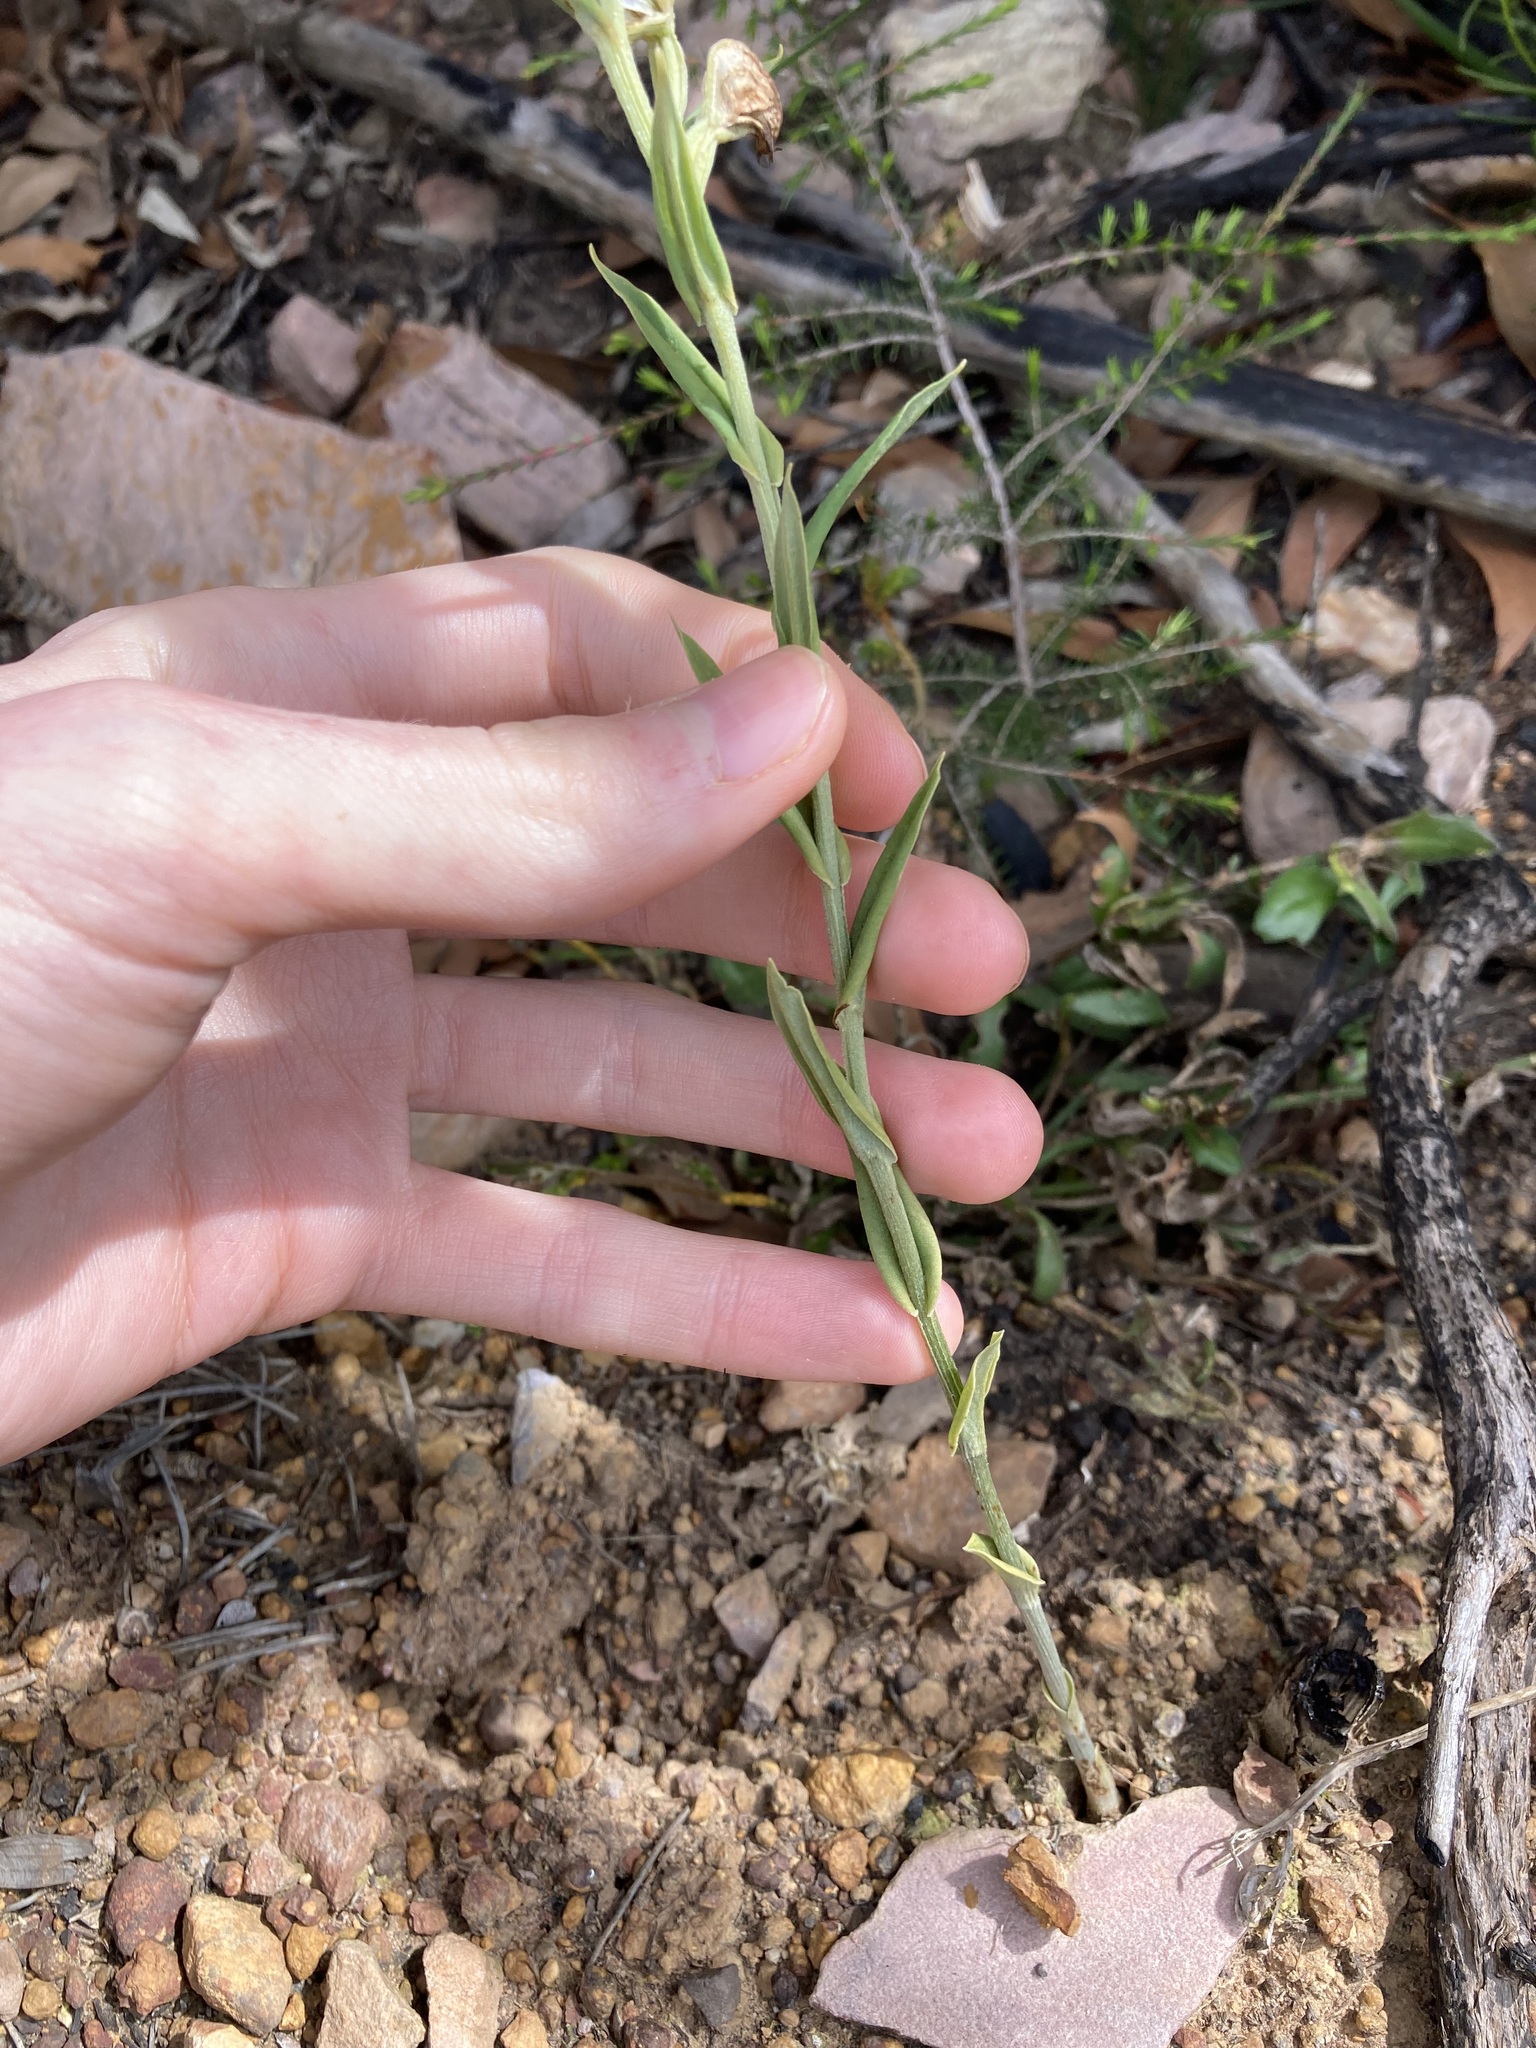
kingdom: Plantae
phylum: Tracheophyta
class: Liliopsida
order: Asparagales
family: Orchidaceae
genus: Pterostylis
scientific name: Pterostylis vittata
